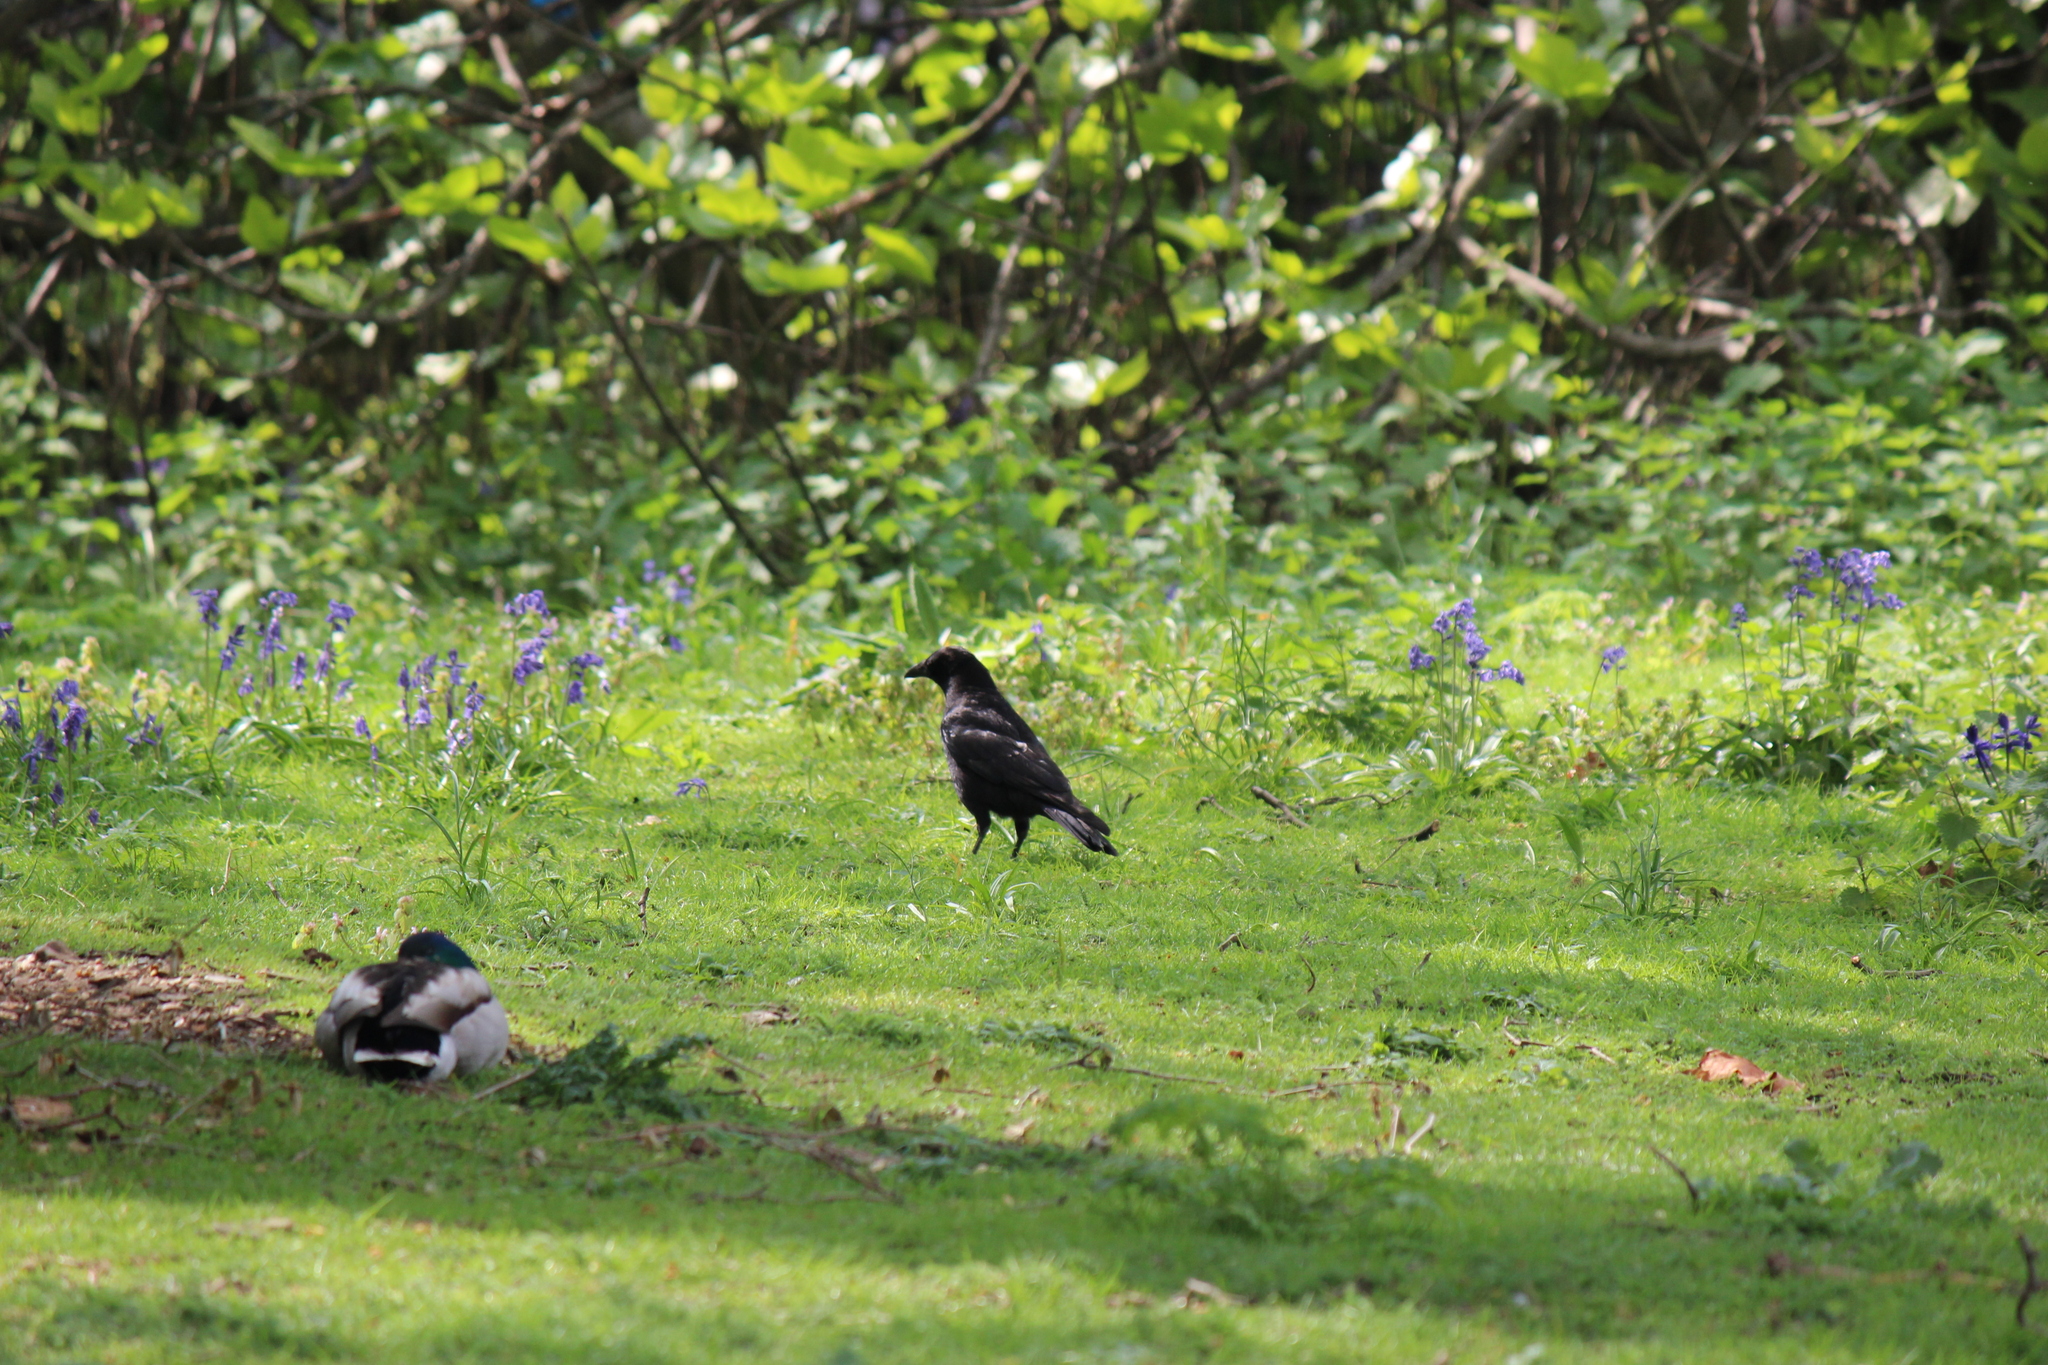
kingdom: Animalia
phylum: Chordata
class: Aves
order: Passeriformes
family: Corvidae
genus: Corvus
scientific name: Corvus corone
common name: Carrion crow
